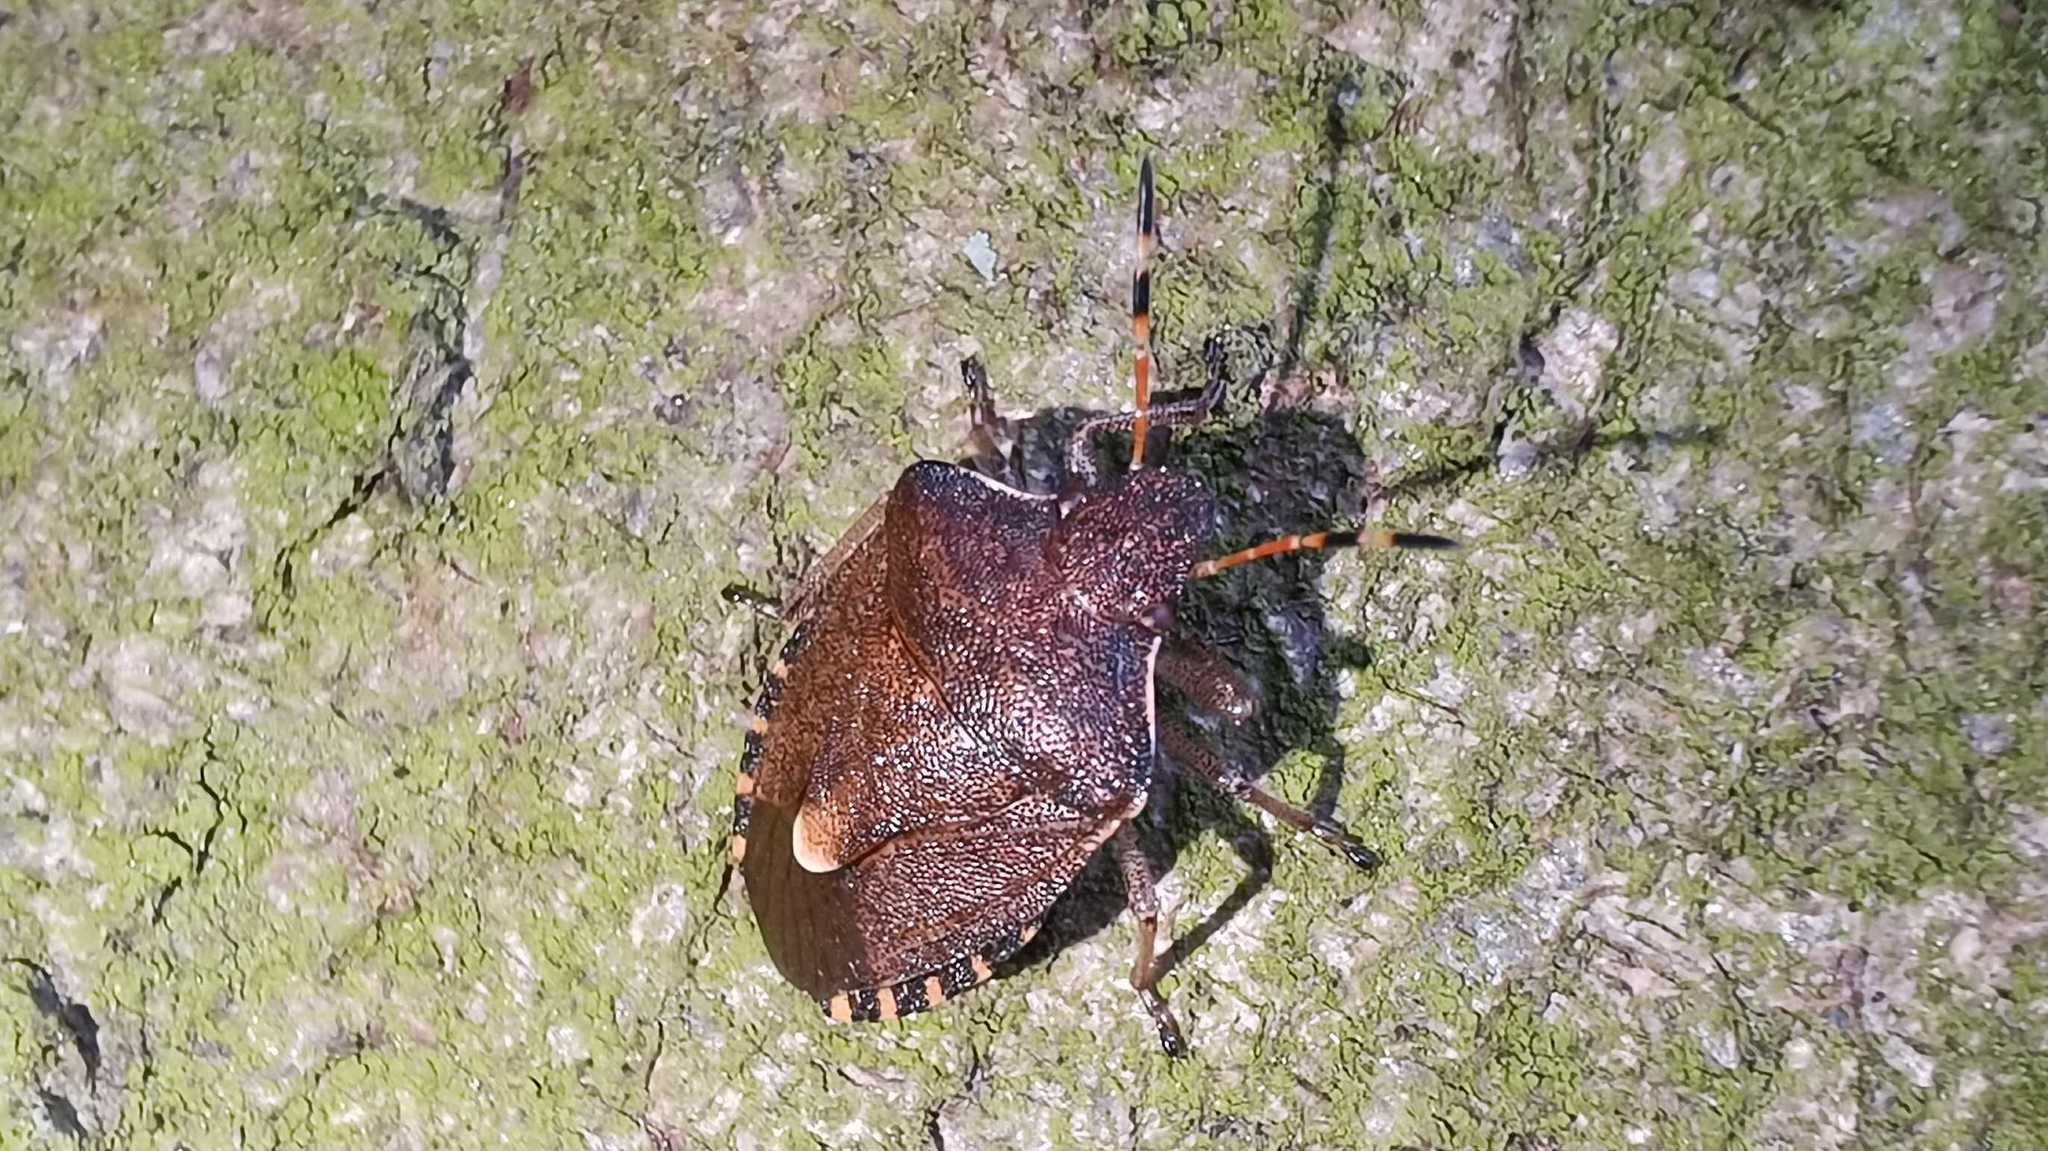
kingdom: Animalia
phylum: Arthropoda
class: Insecta
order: Hemiptera
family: Pentatomidae
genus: Holcostethus
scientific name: Holcostethus strictus
